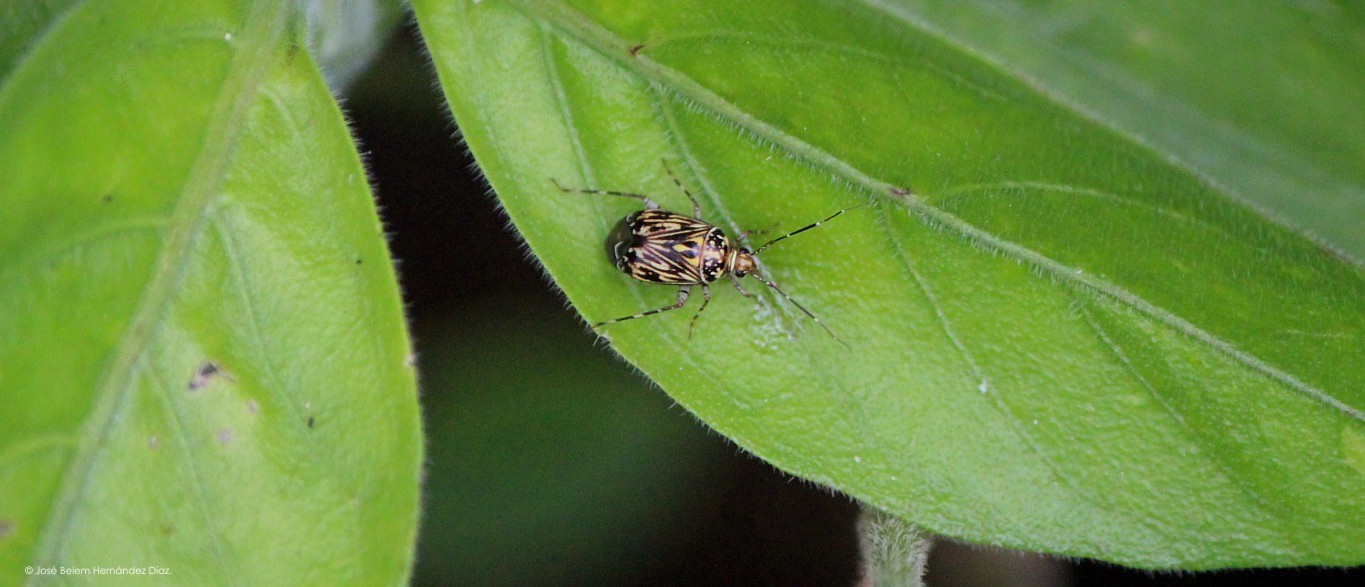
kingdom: Animalia
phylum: Arthropoda
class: Insecta
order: Hemiptera
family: Miridae
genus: Taedia
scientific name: Taedia fasciola
